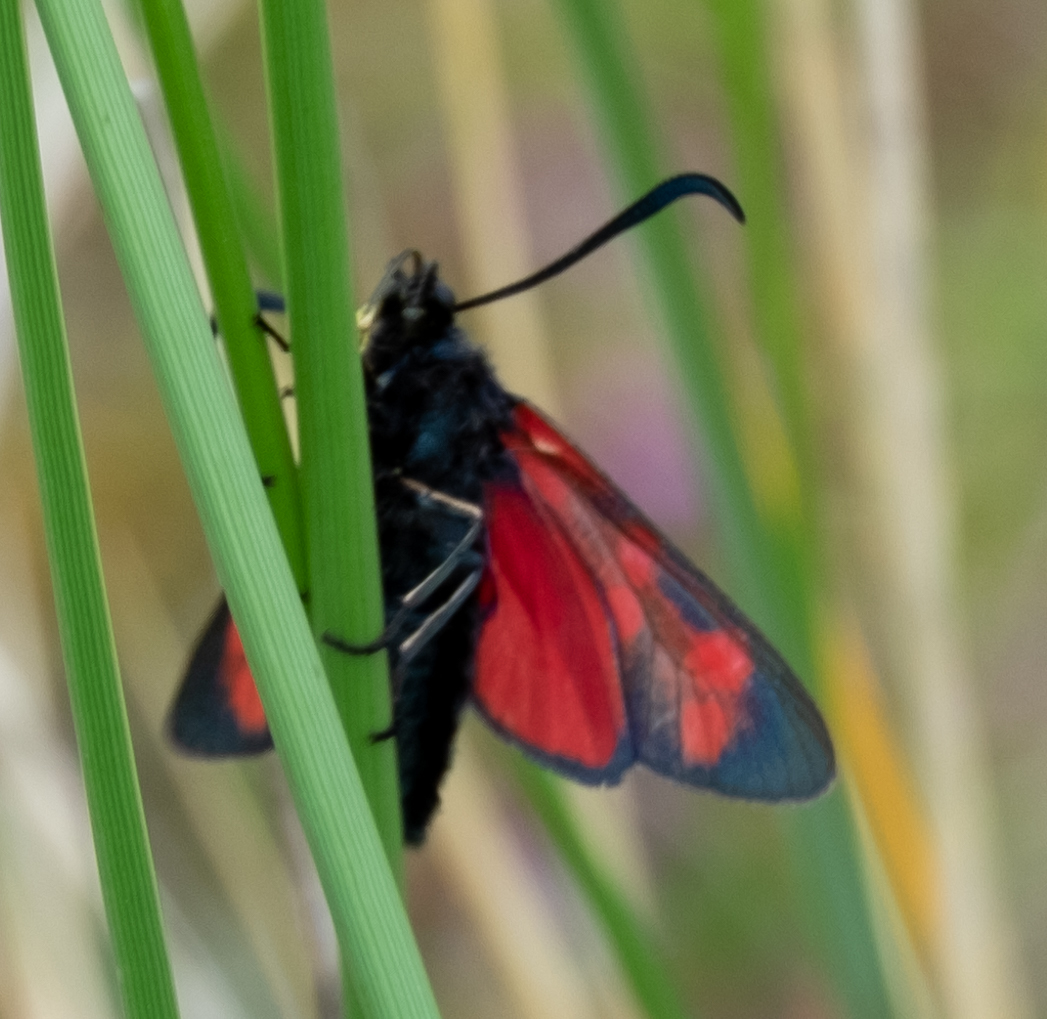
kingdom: Animalia
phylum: Arthropoda
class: Insecta
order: Lepidoptera
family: Zygaenidae
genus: Zygaena
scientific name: Zygaena filipendulae
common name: Six-spot burnet
